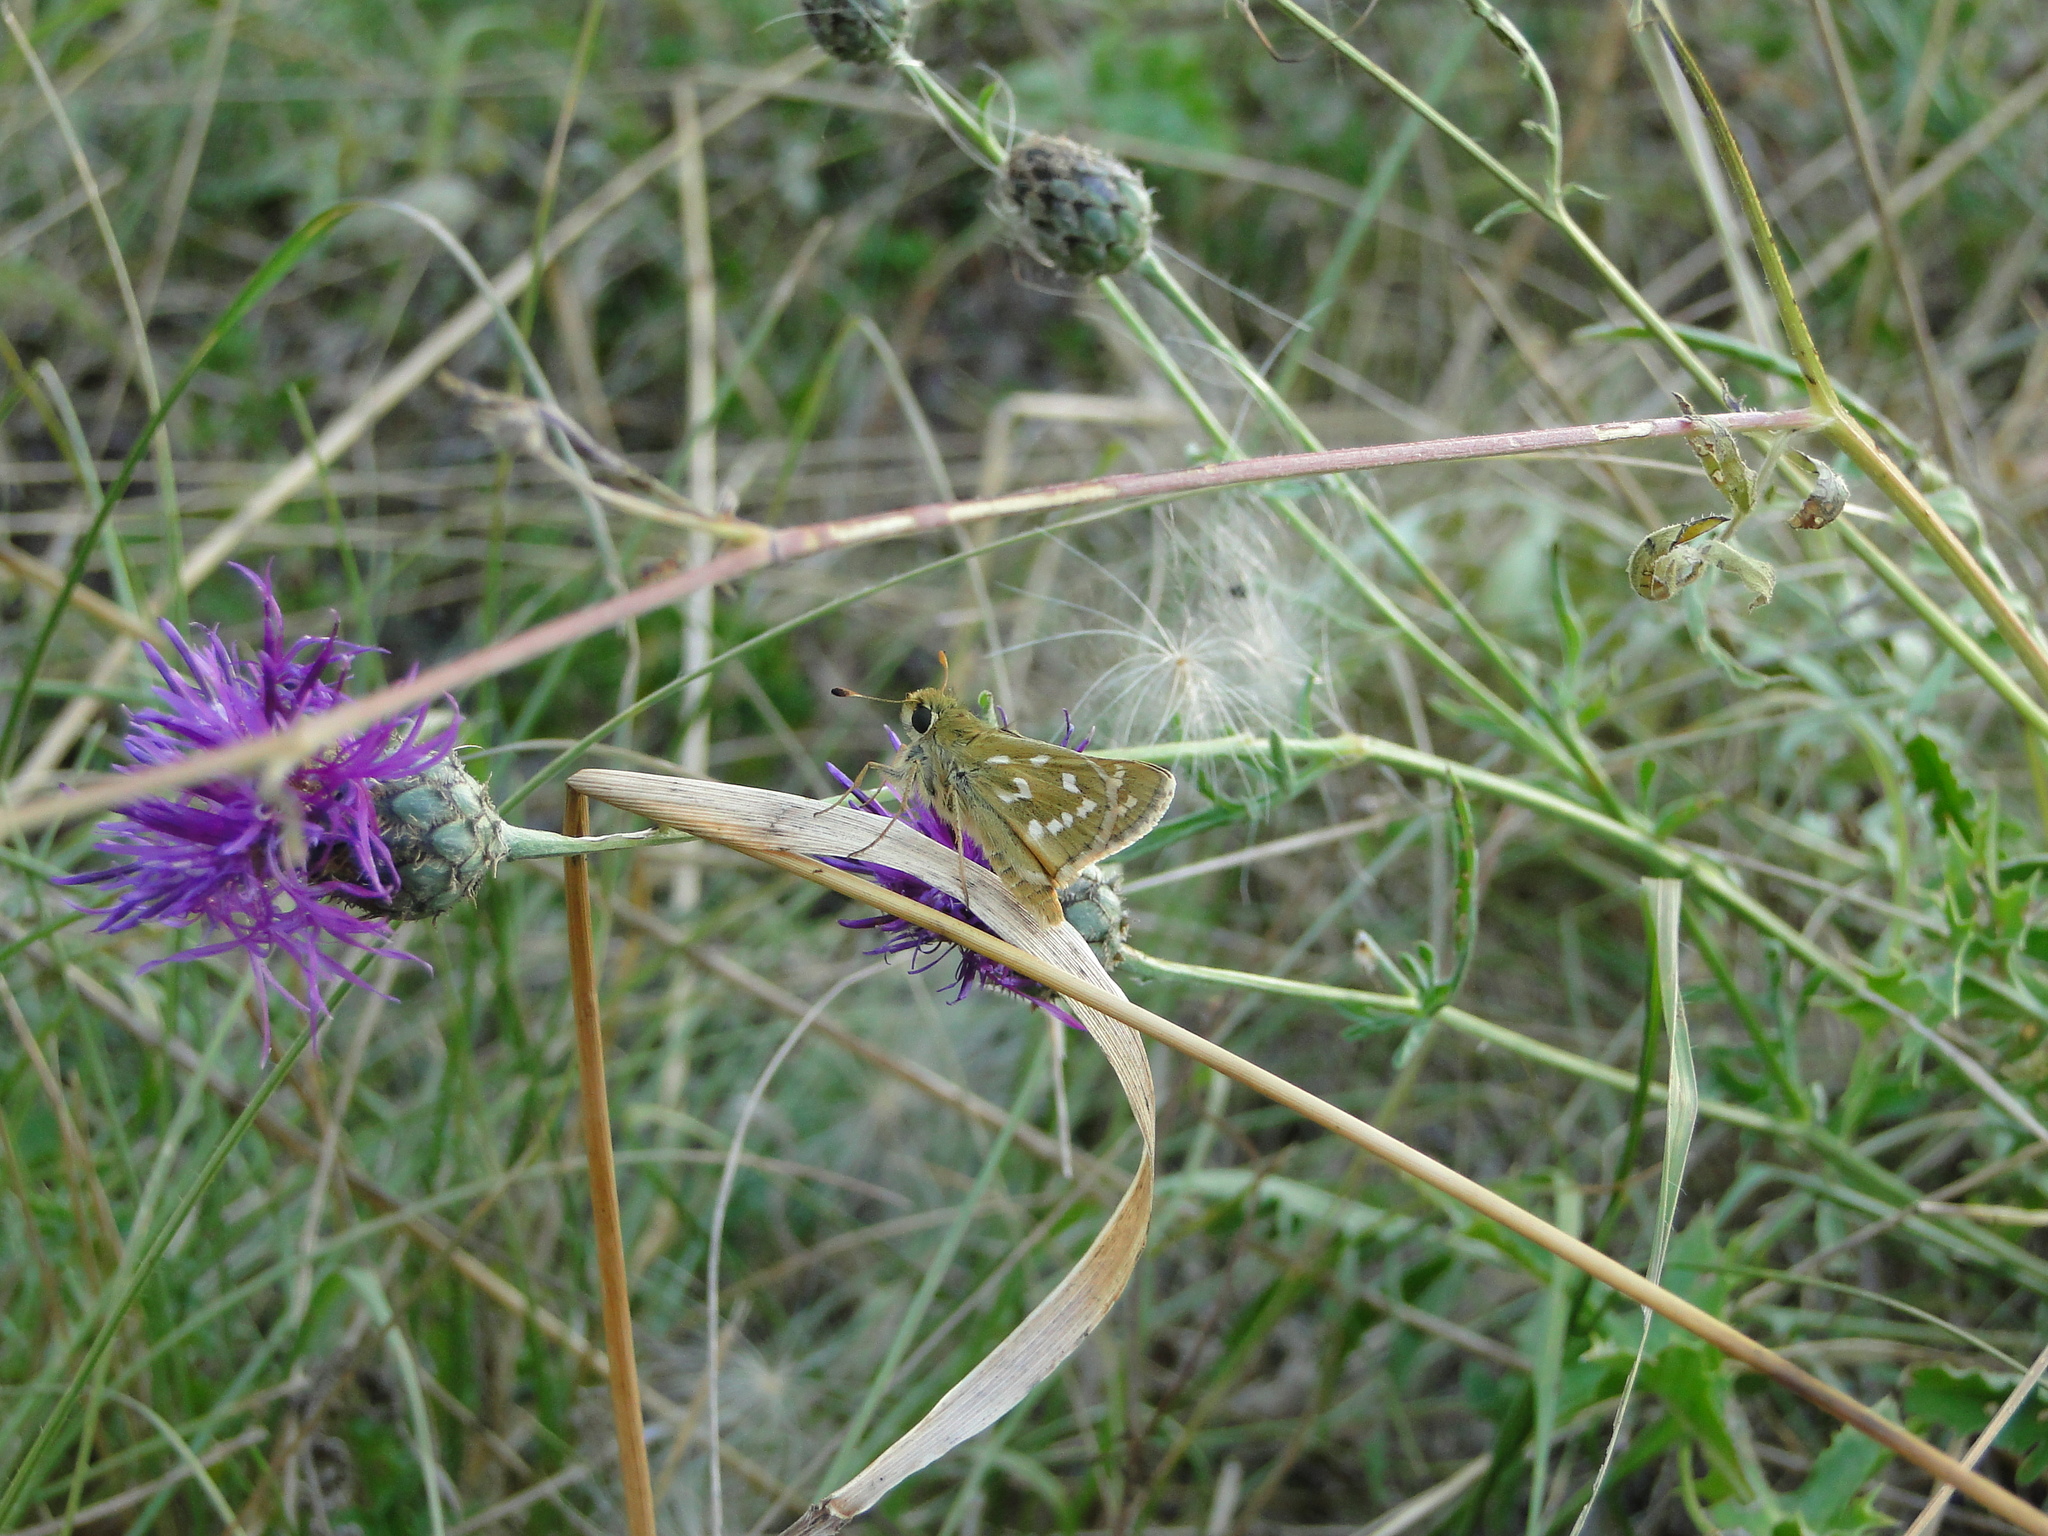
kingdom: Animalia
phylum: Arthropoda
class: Insecta
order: Lepidoptera
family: Hesperiidae
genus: Hesperia
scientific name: Hesperia comma
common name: Common branded skipper
